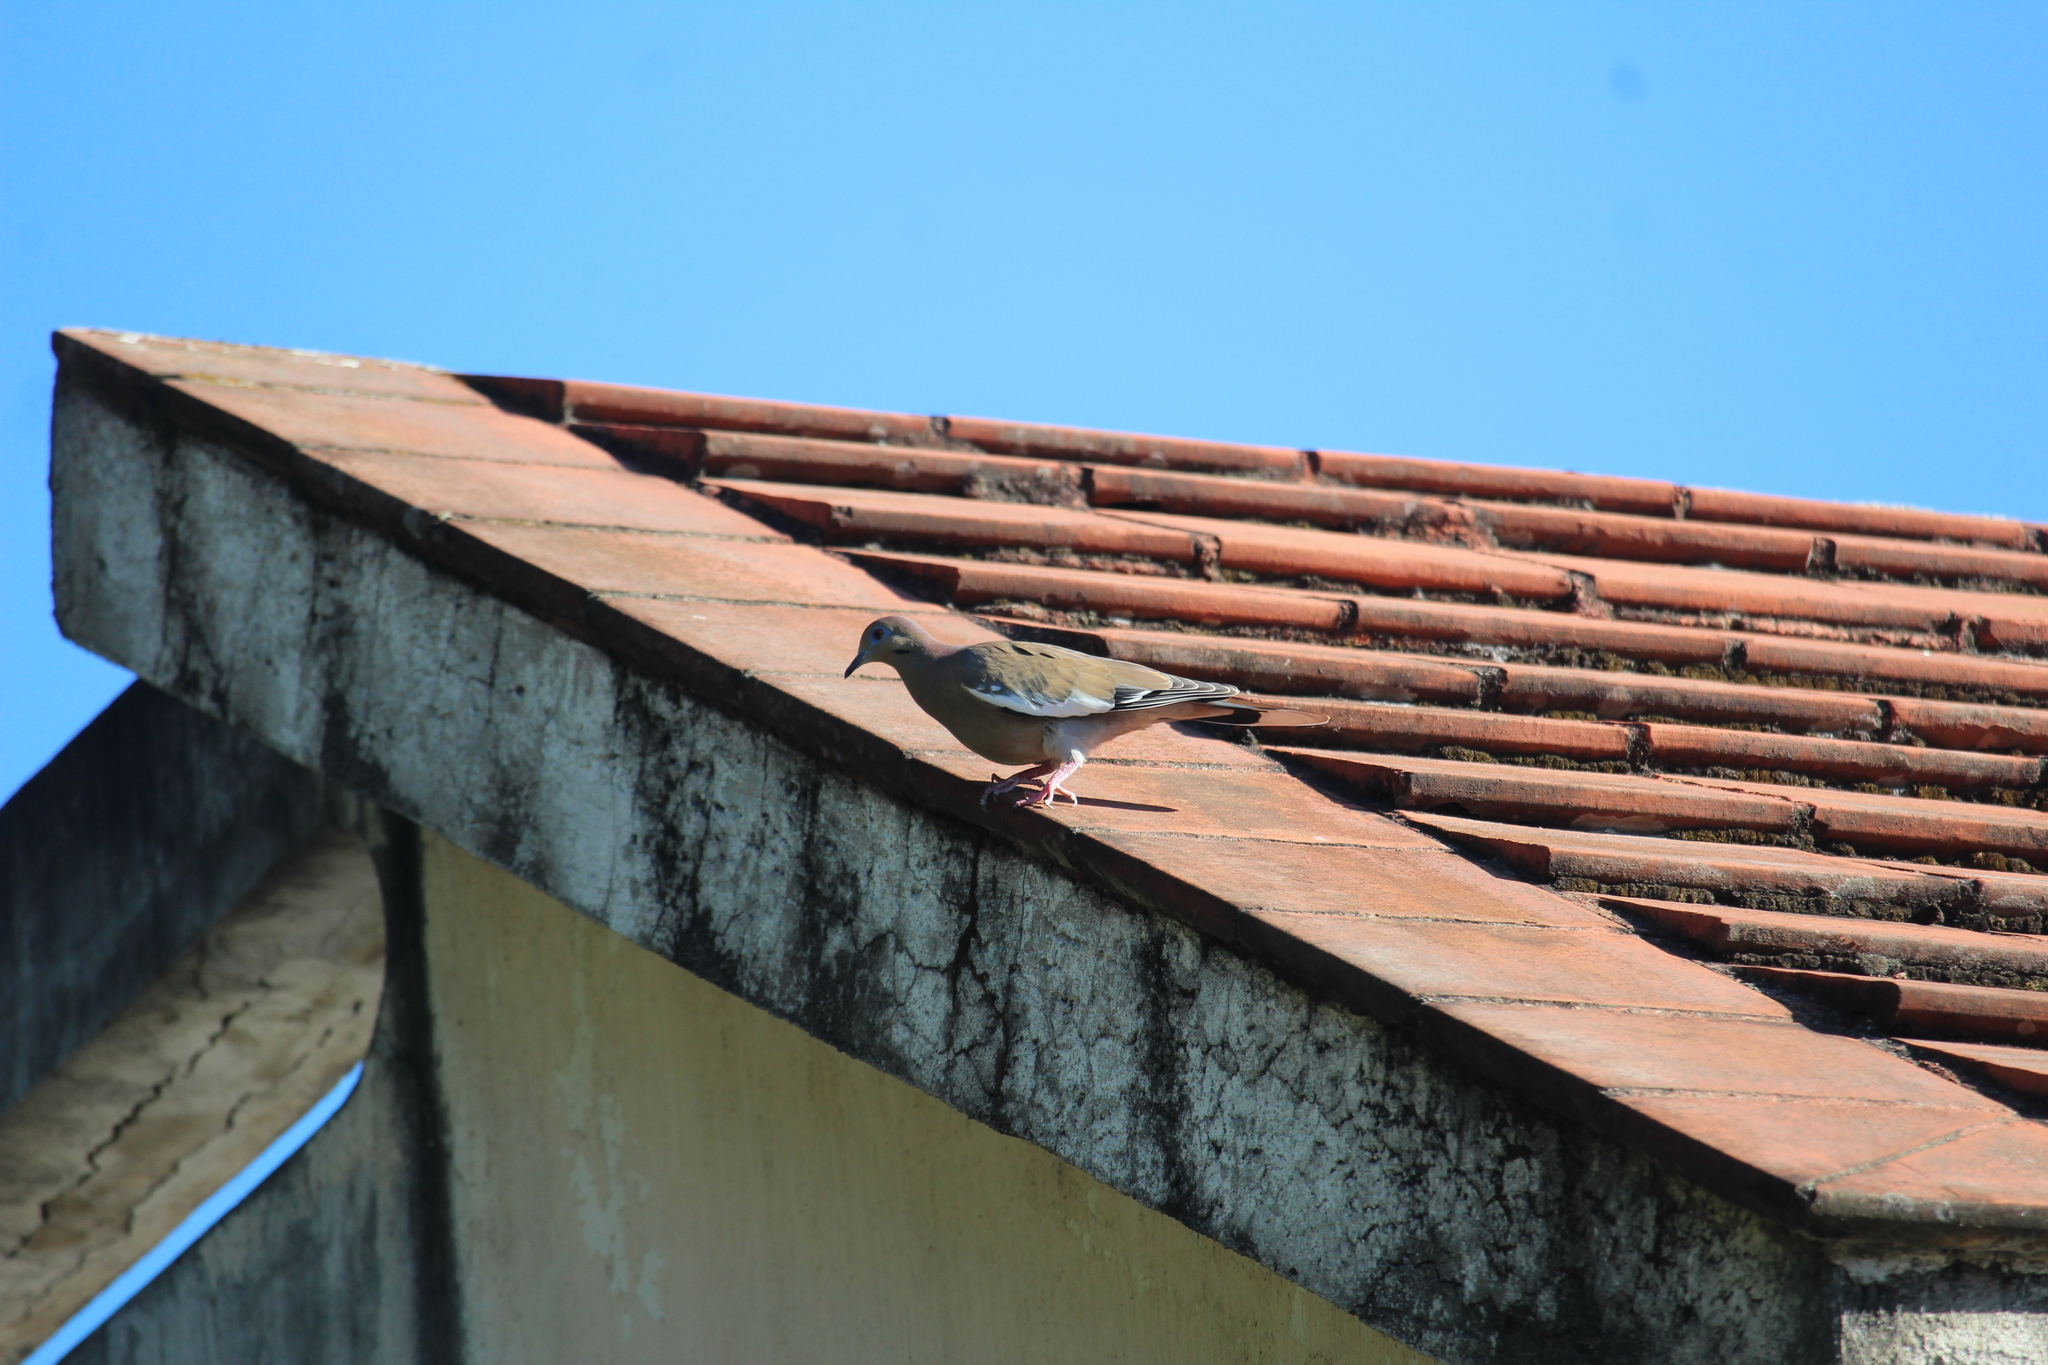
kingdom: Animalia
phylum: Chordata
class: Aves
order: Columbiformes
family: Columbidae
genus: Zenaida
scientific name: Zenaida asiatica
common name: White-winged dove
